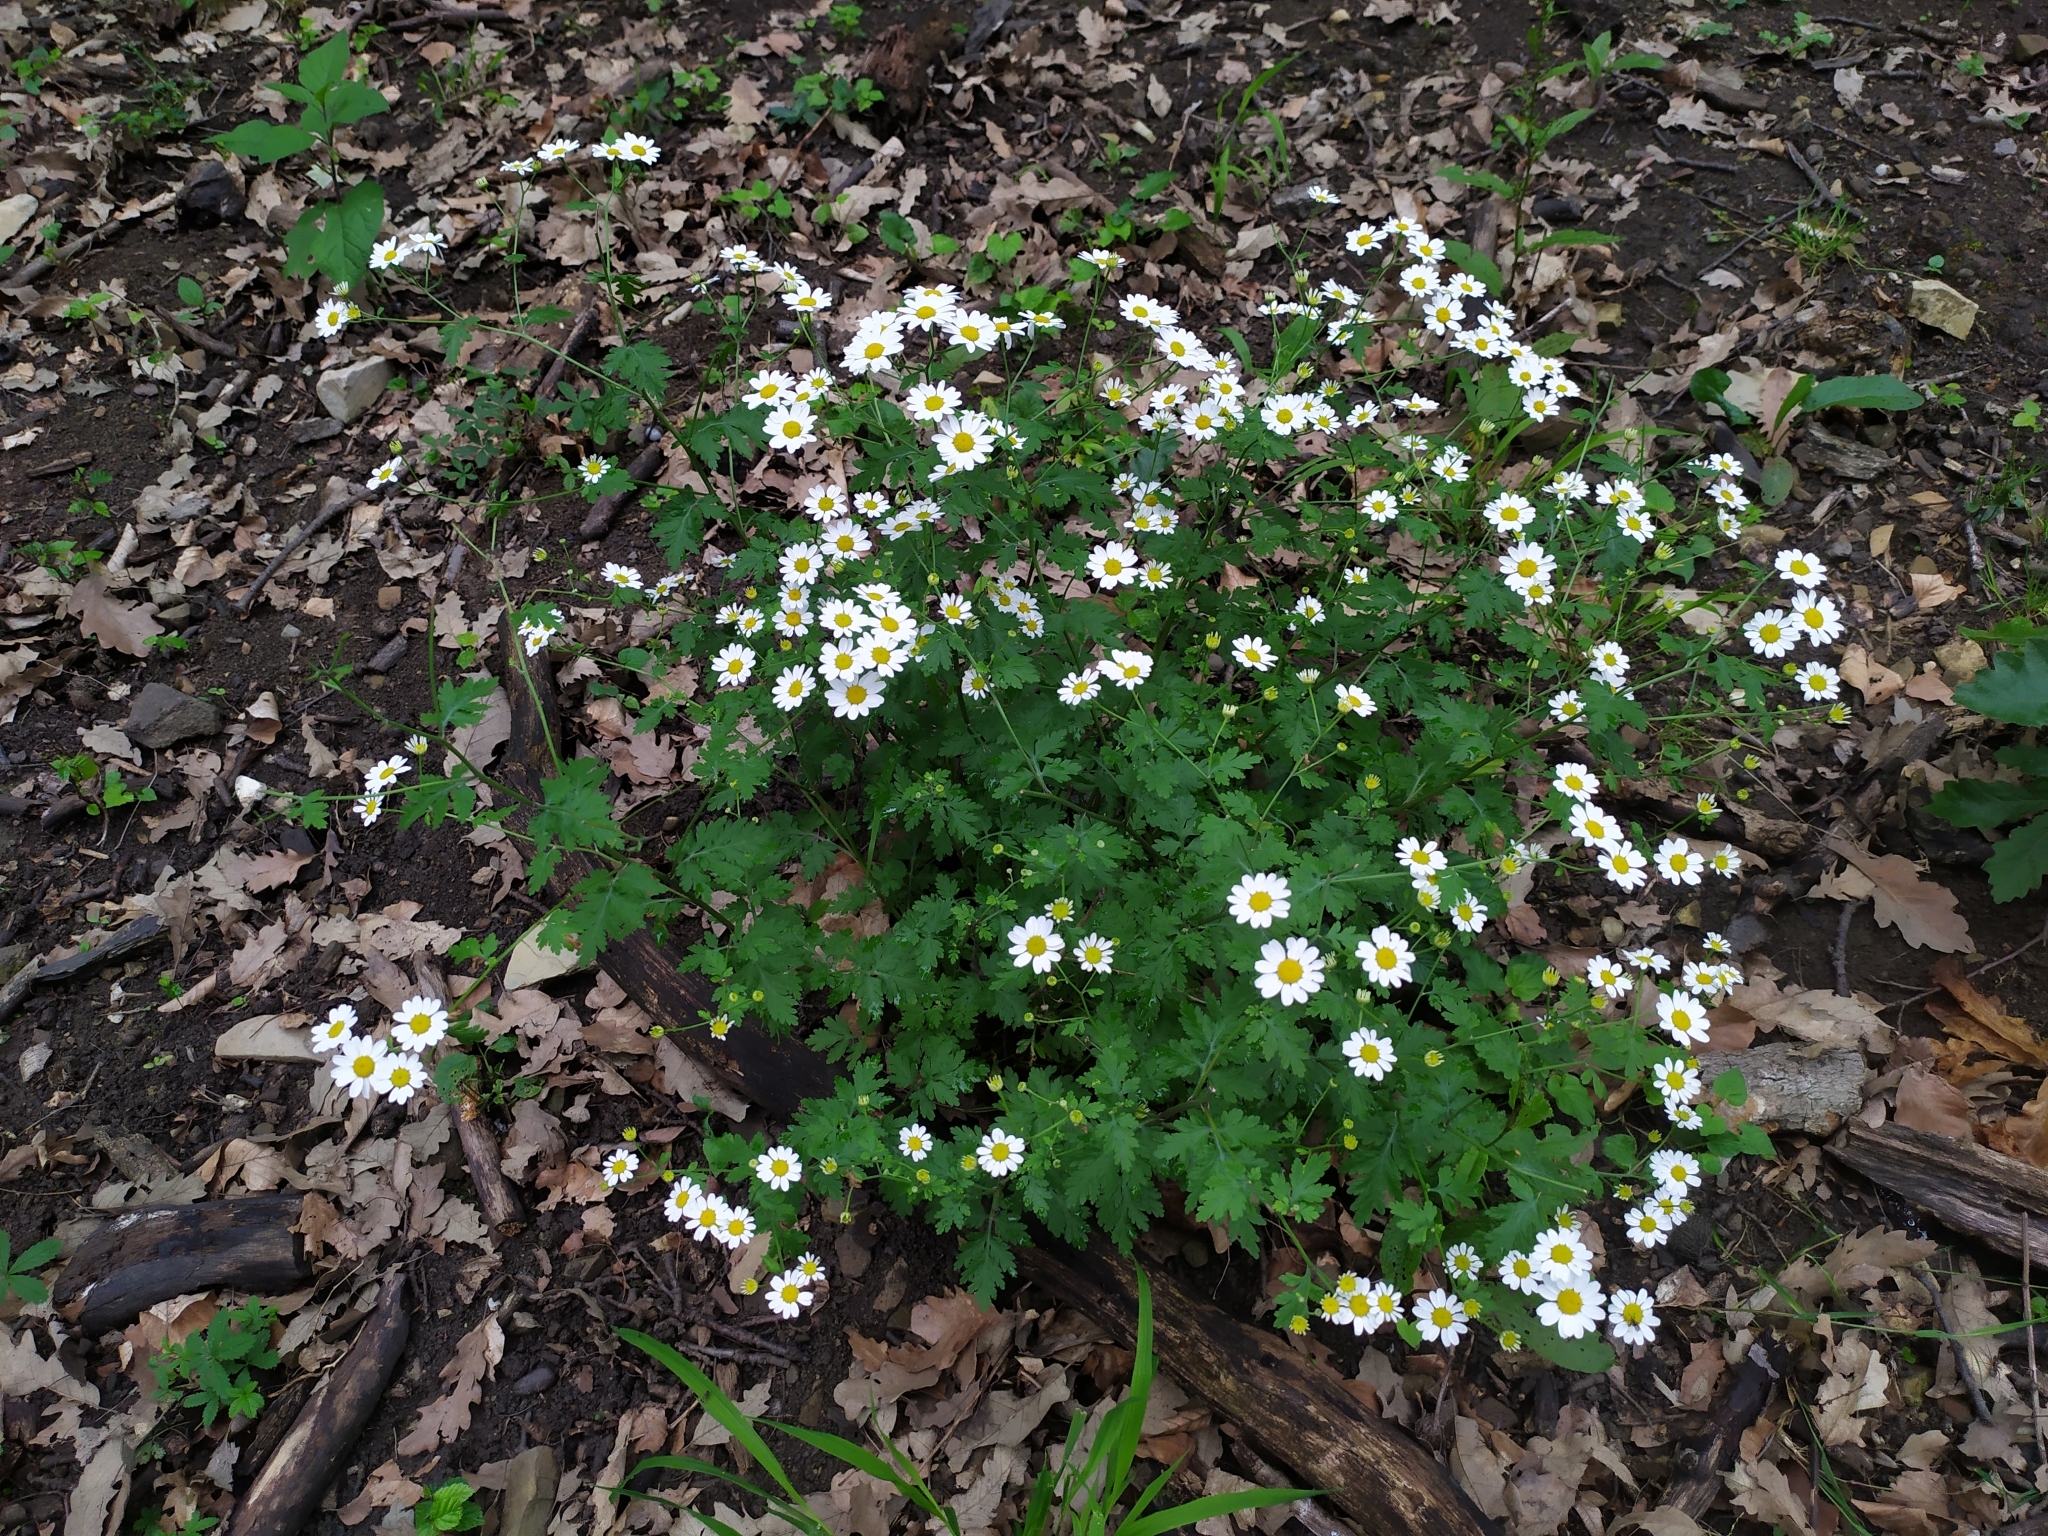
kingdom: Plantae
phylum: Tracheophyta
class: Magnoliopsida
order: Asterales
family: Asteraceae
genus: Tanacetum
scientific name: Tanacetum parthenium
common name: Feverfew
